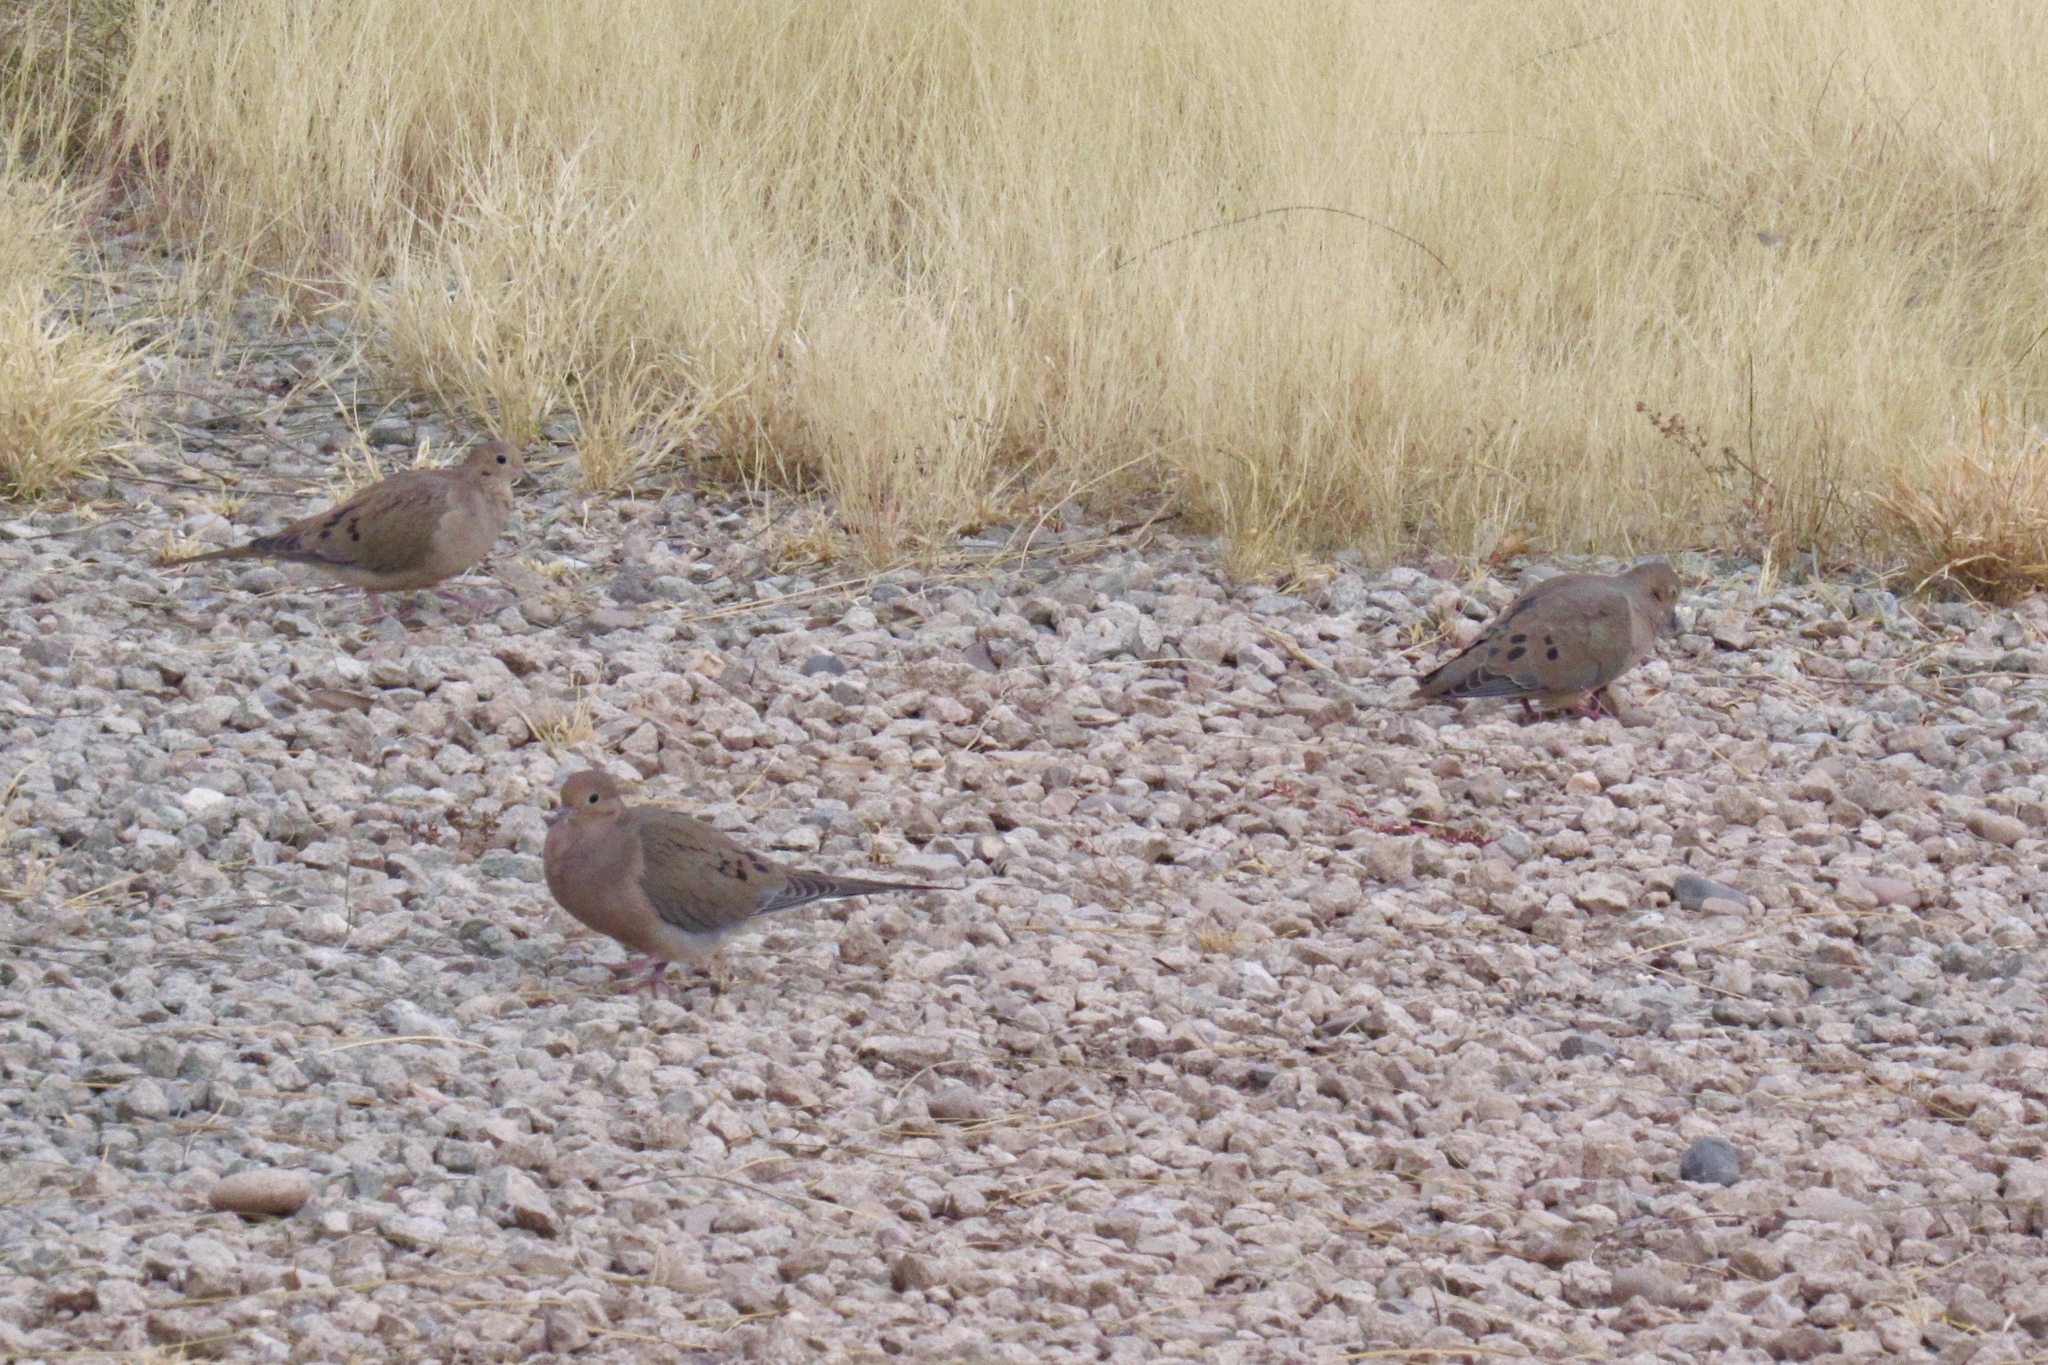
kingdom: Animalia
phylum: Chordata
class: Aves
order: Columbiformes
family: Columbidae
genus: Zenaida
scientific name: Zenaida macroura
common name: Mourning dove
